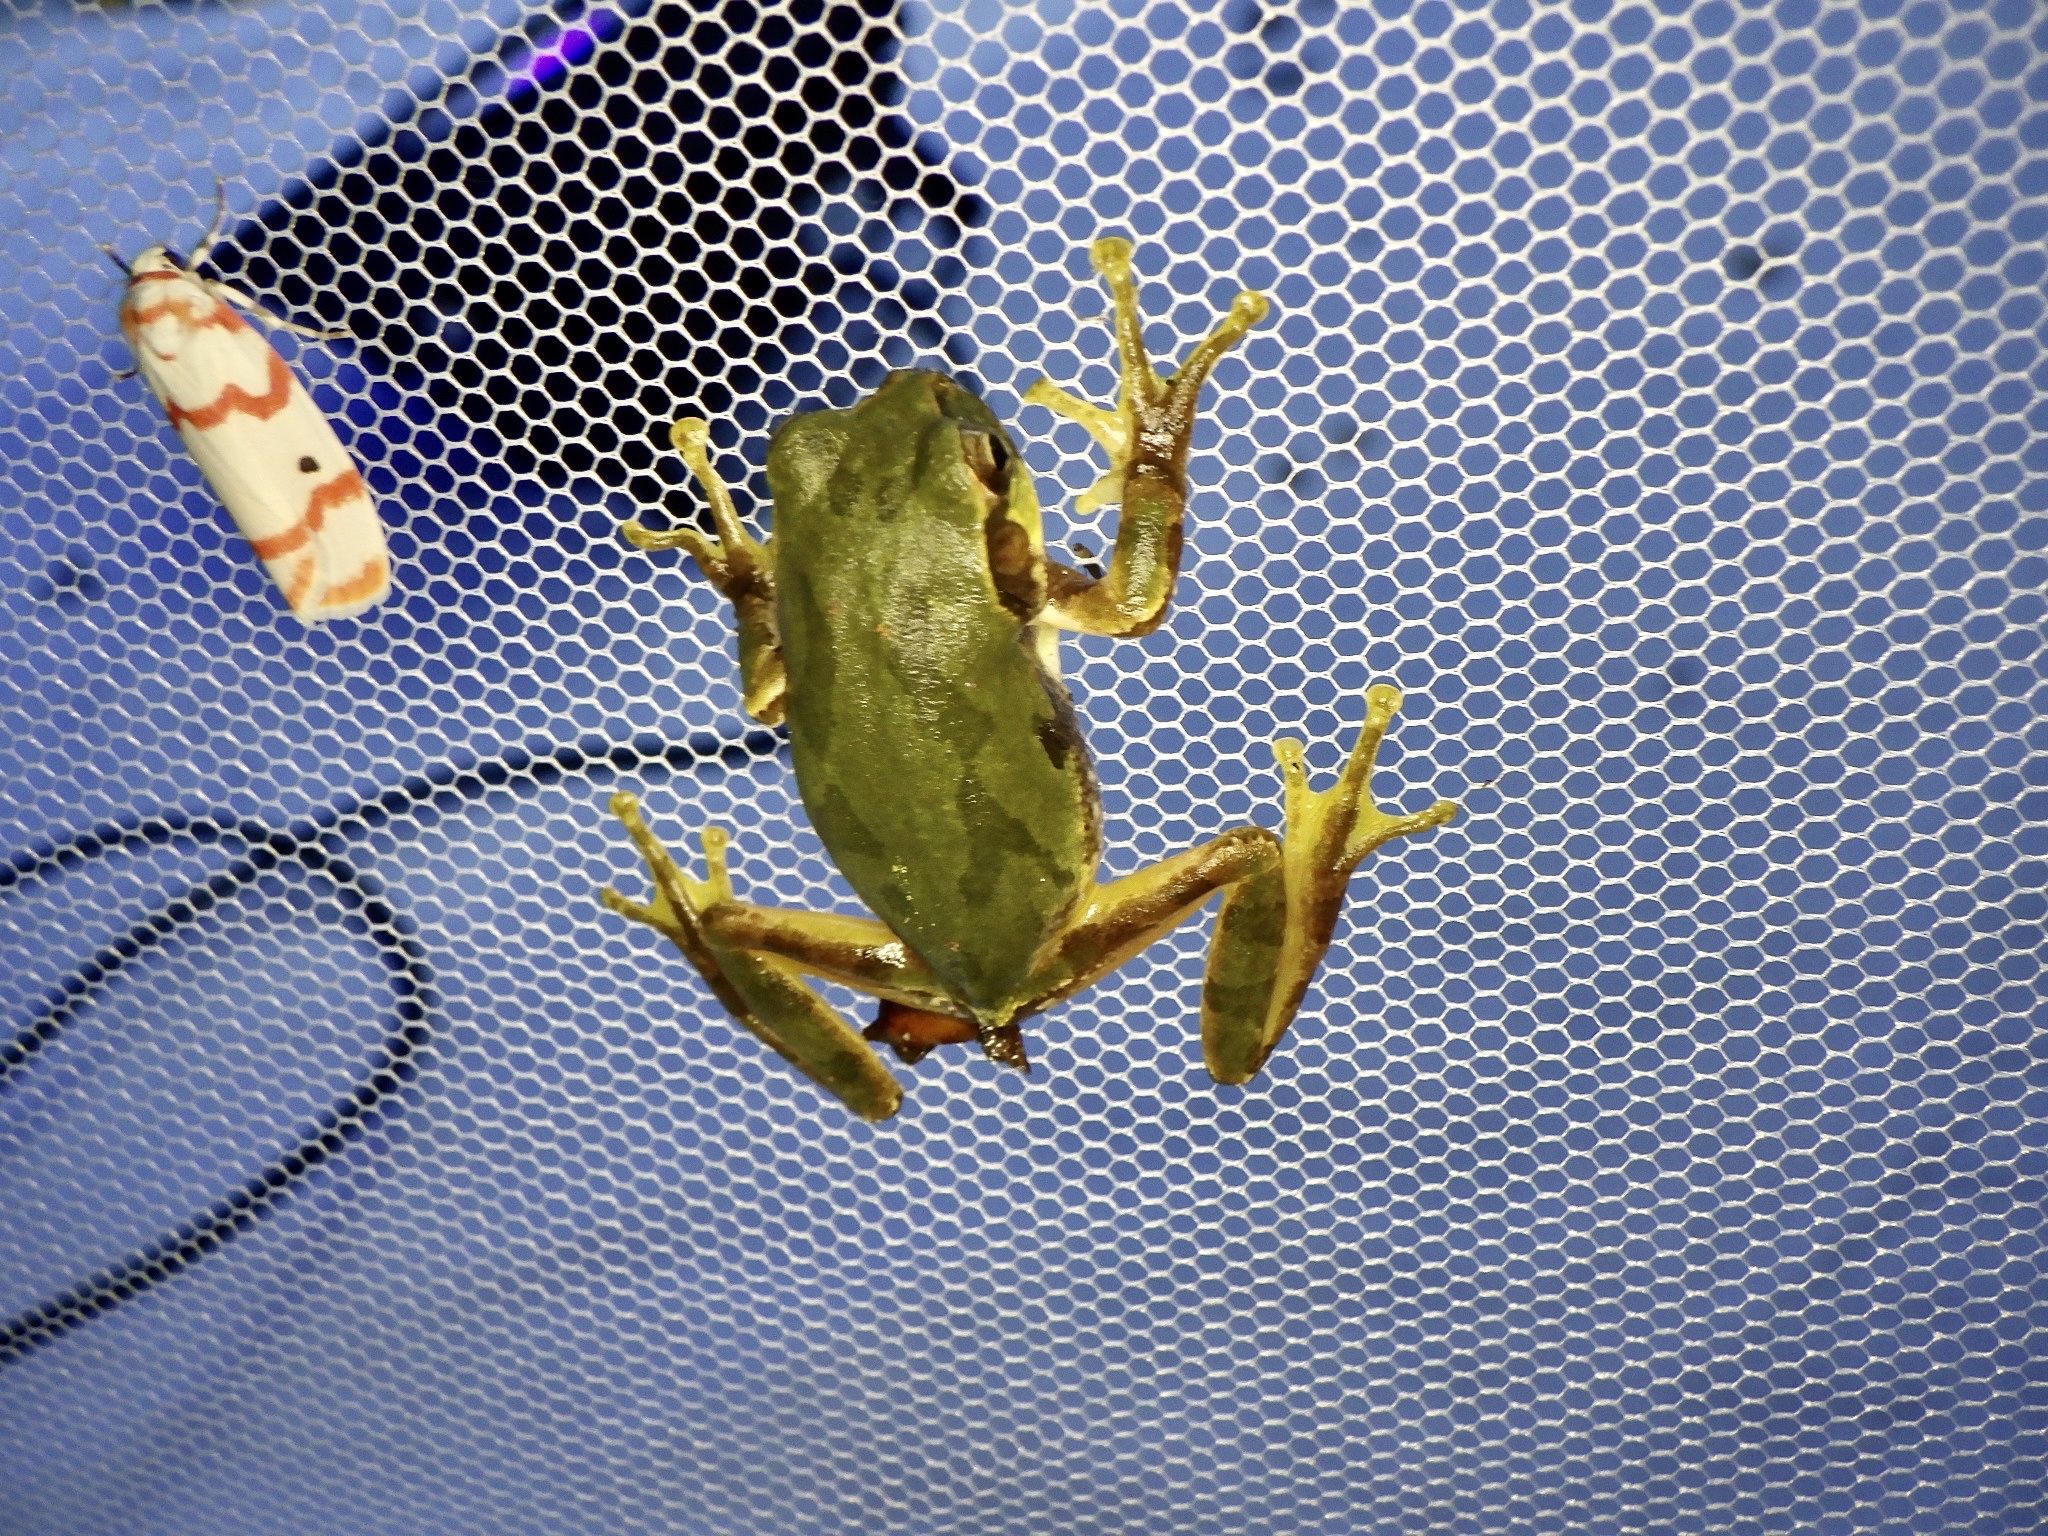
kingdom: Animalia
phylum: Chordata
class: Amphibia
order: Anura
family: Hylidae
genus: Dryophytes
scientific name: Dryophytes japonicus
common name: Japanese treefrog
